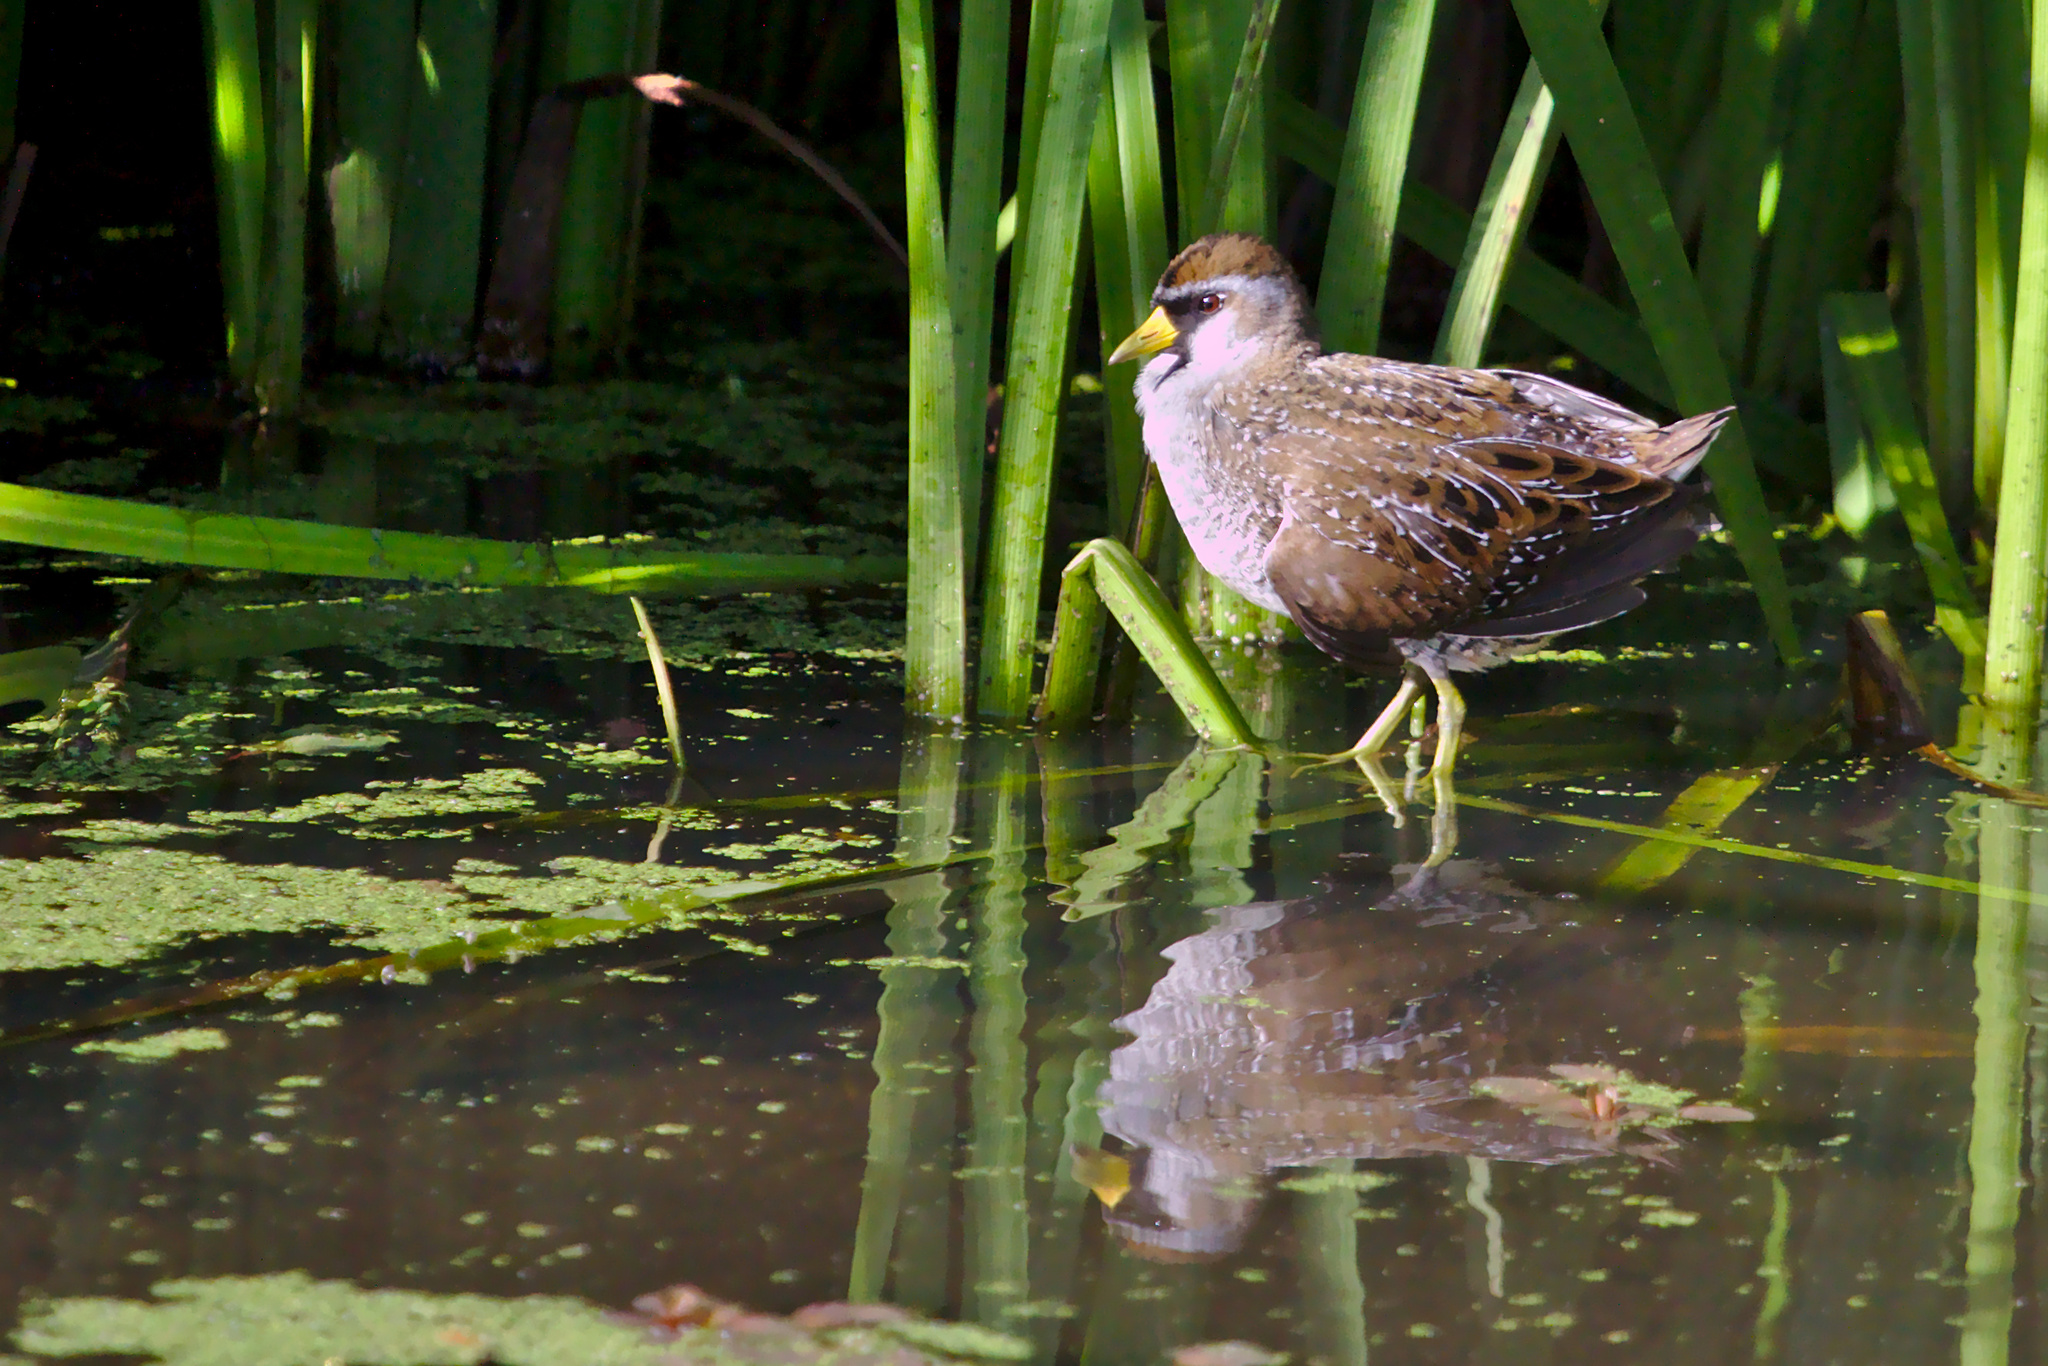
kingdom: Animalia
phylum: Chordata
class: Aves
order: Gruiformes
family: Rallidae
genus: Porzana
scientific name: Porzana carolina
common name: Sora
